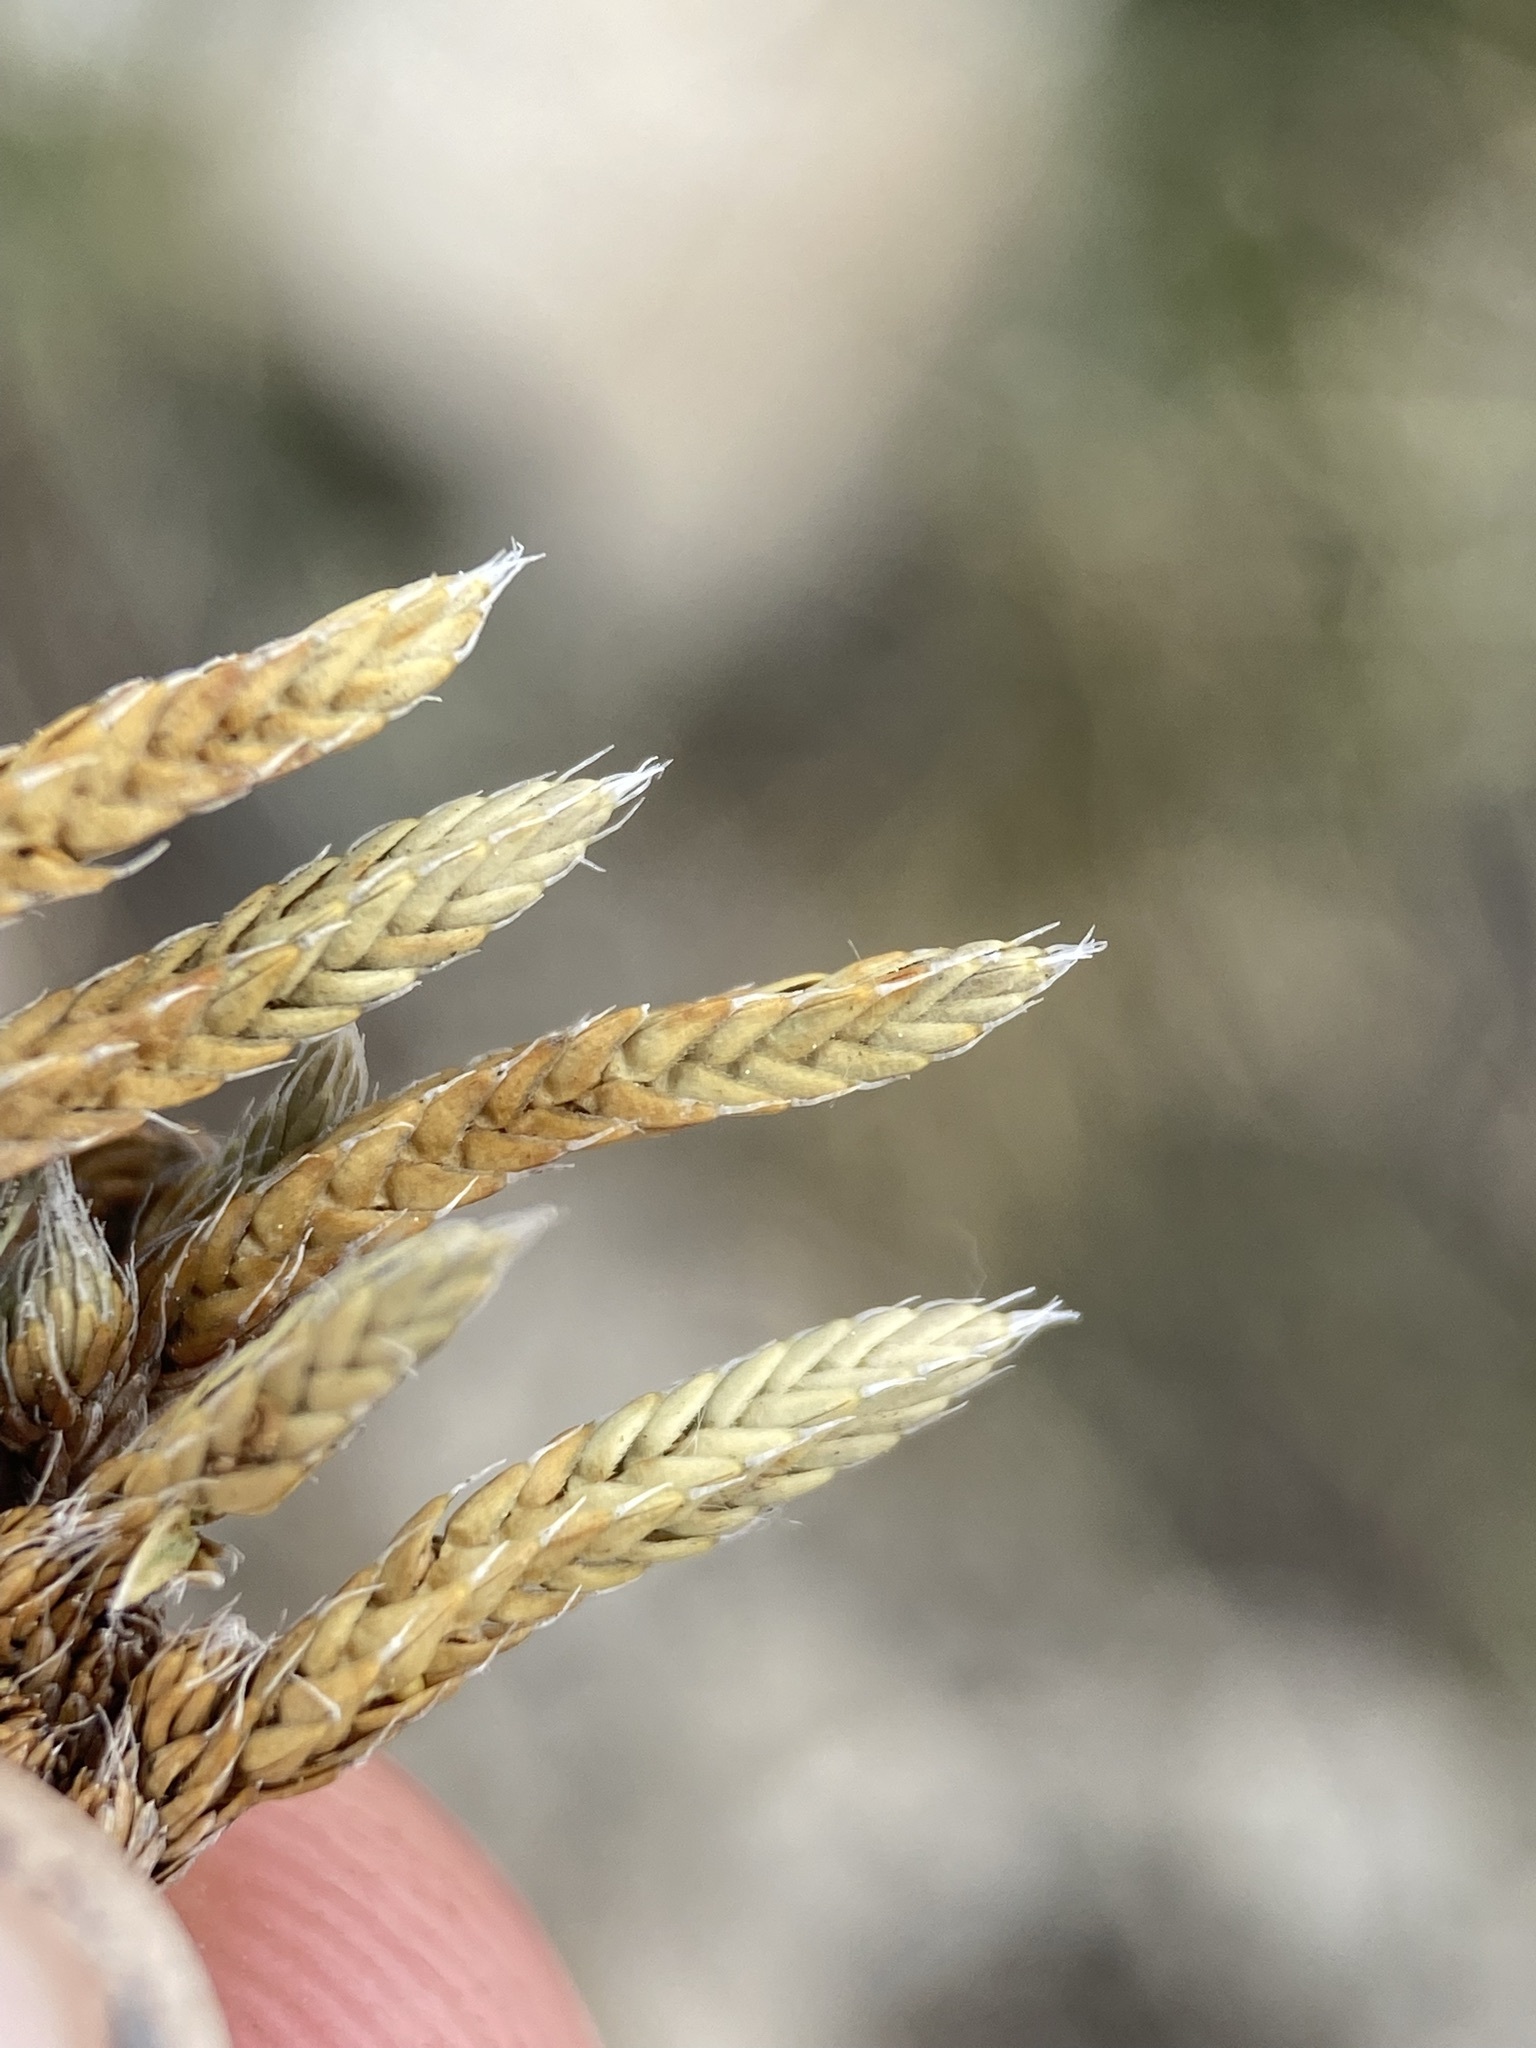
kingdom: Plantae
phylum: Tracheophyta
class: Lycopodiopsida
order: Selaginellales
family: Selaginellaceae
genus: Selaginella
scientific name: Selaginella densa
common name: Mountain spike-moss
